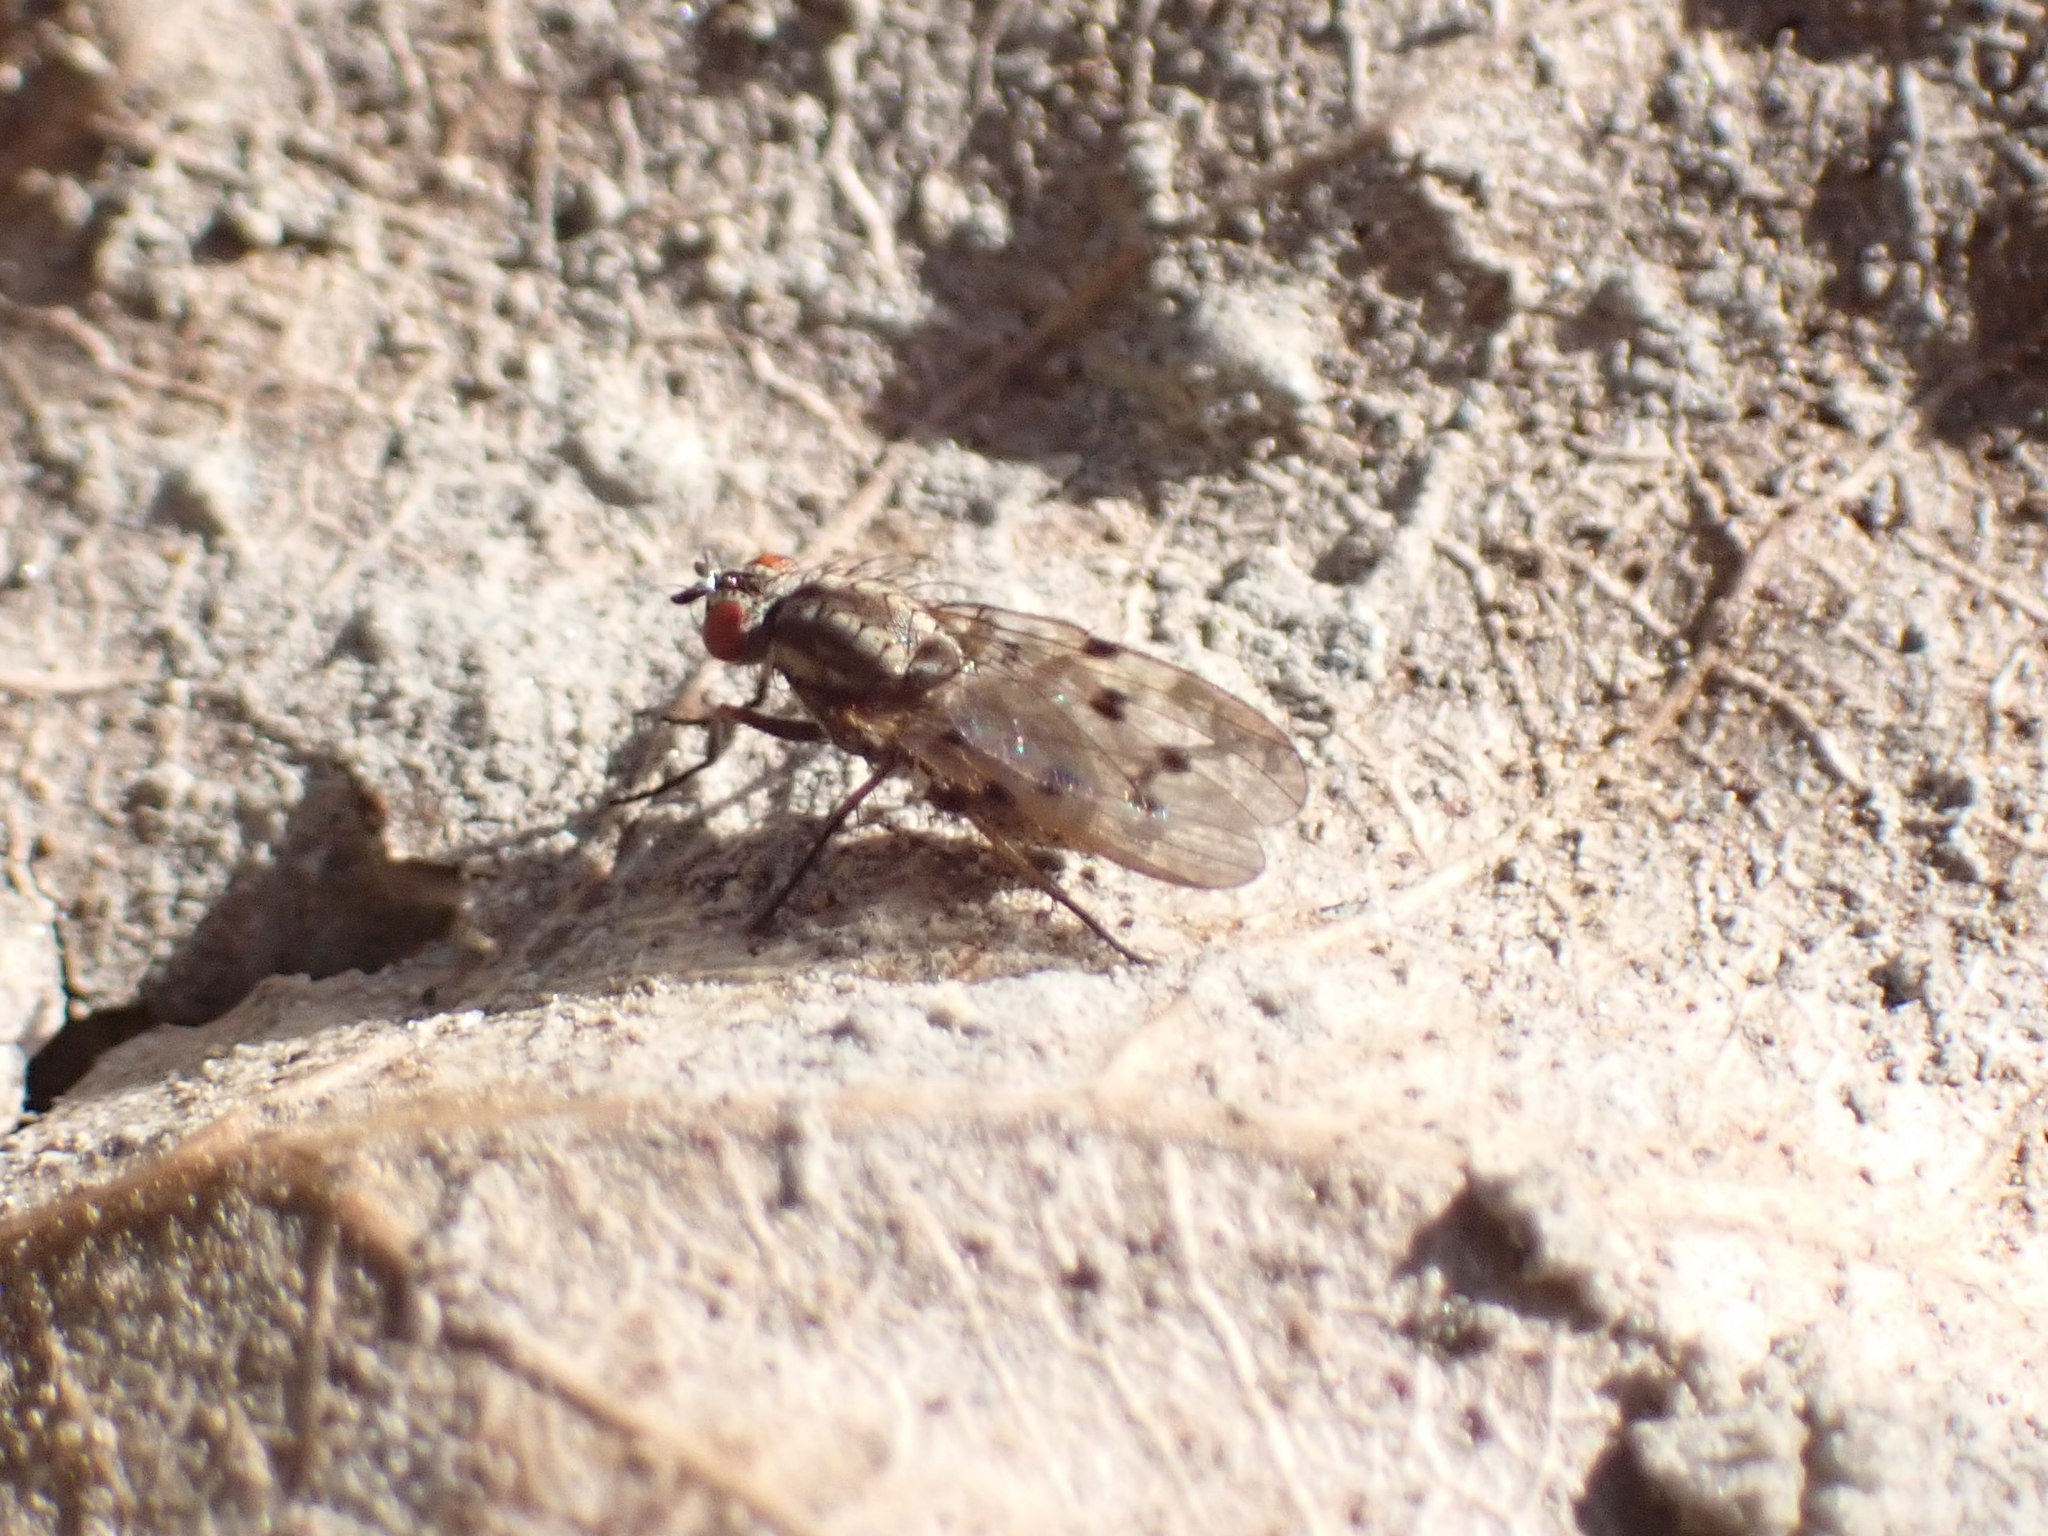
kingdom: Animalia
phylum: Arthropoda
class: Insecta
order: Diptera
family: Anthomyiidae
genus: Anthomyia
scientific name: Anthomyia punctipennis
